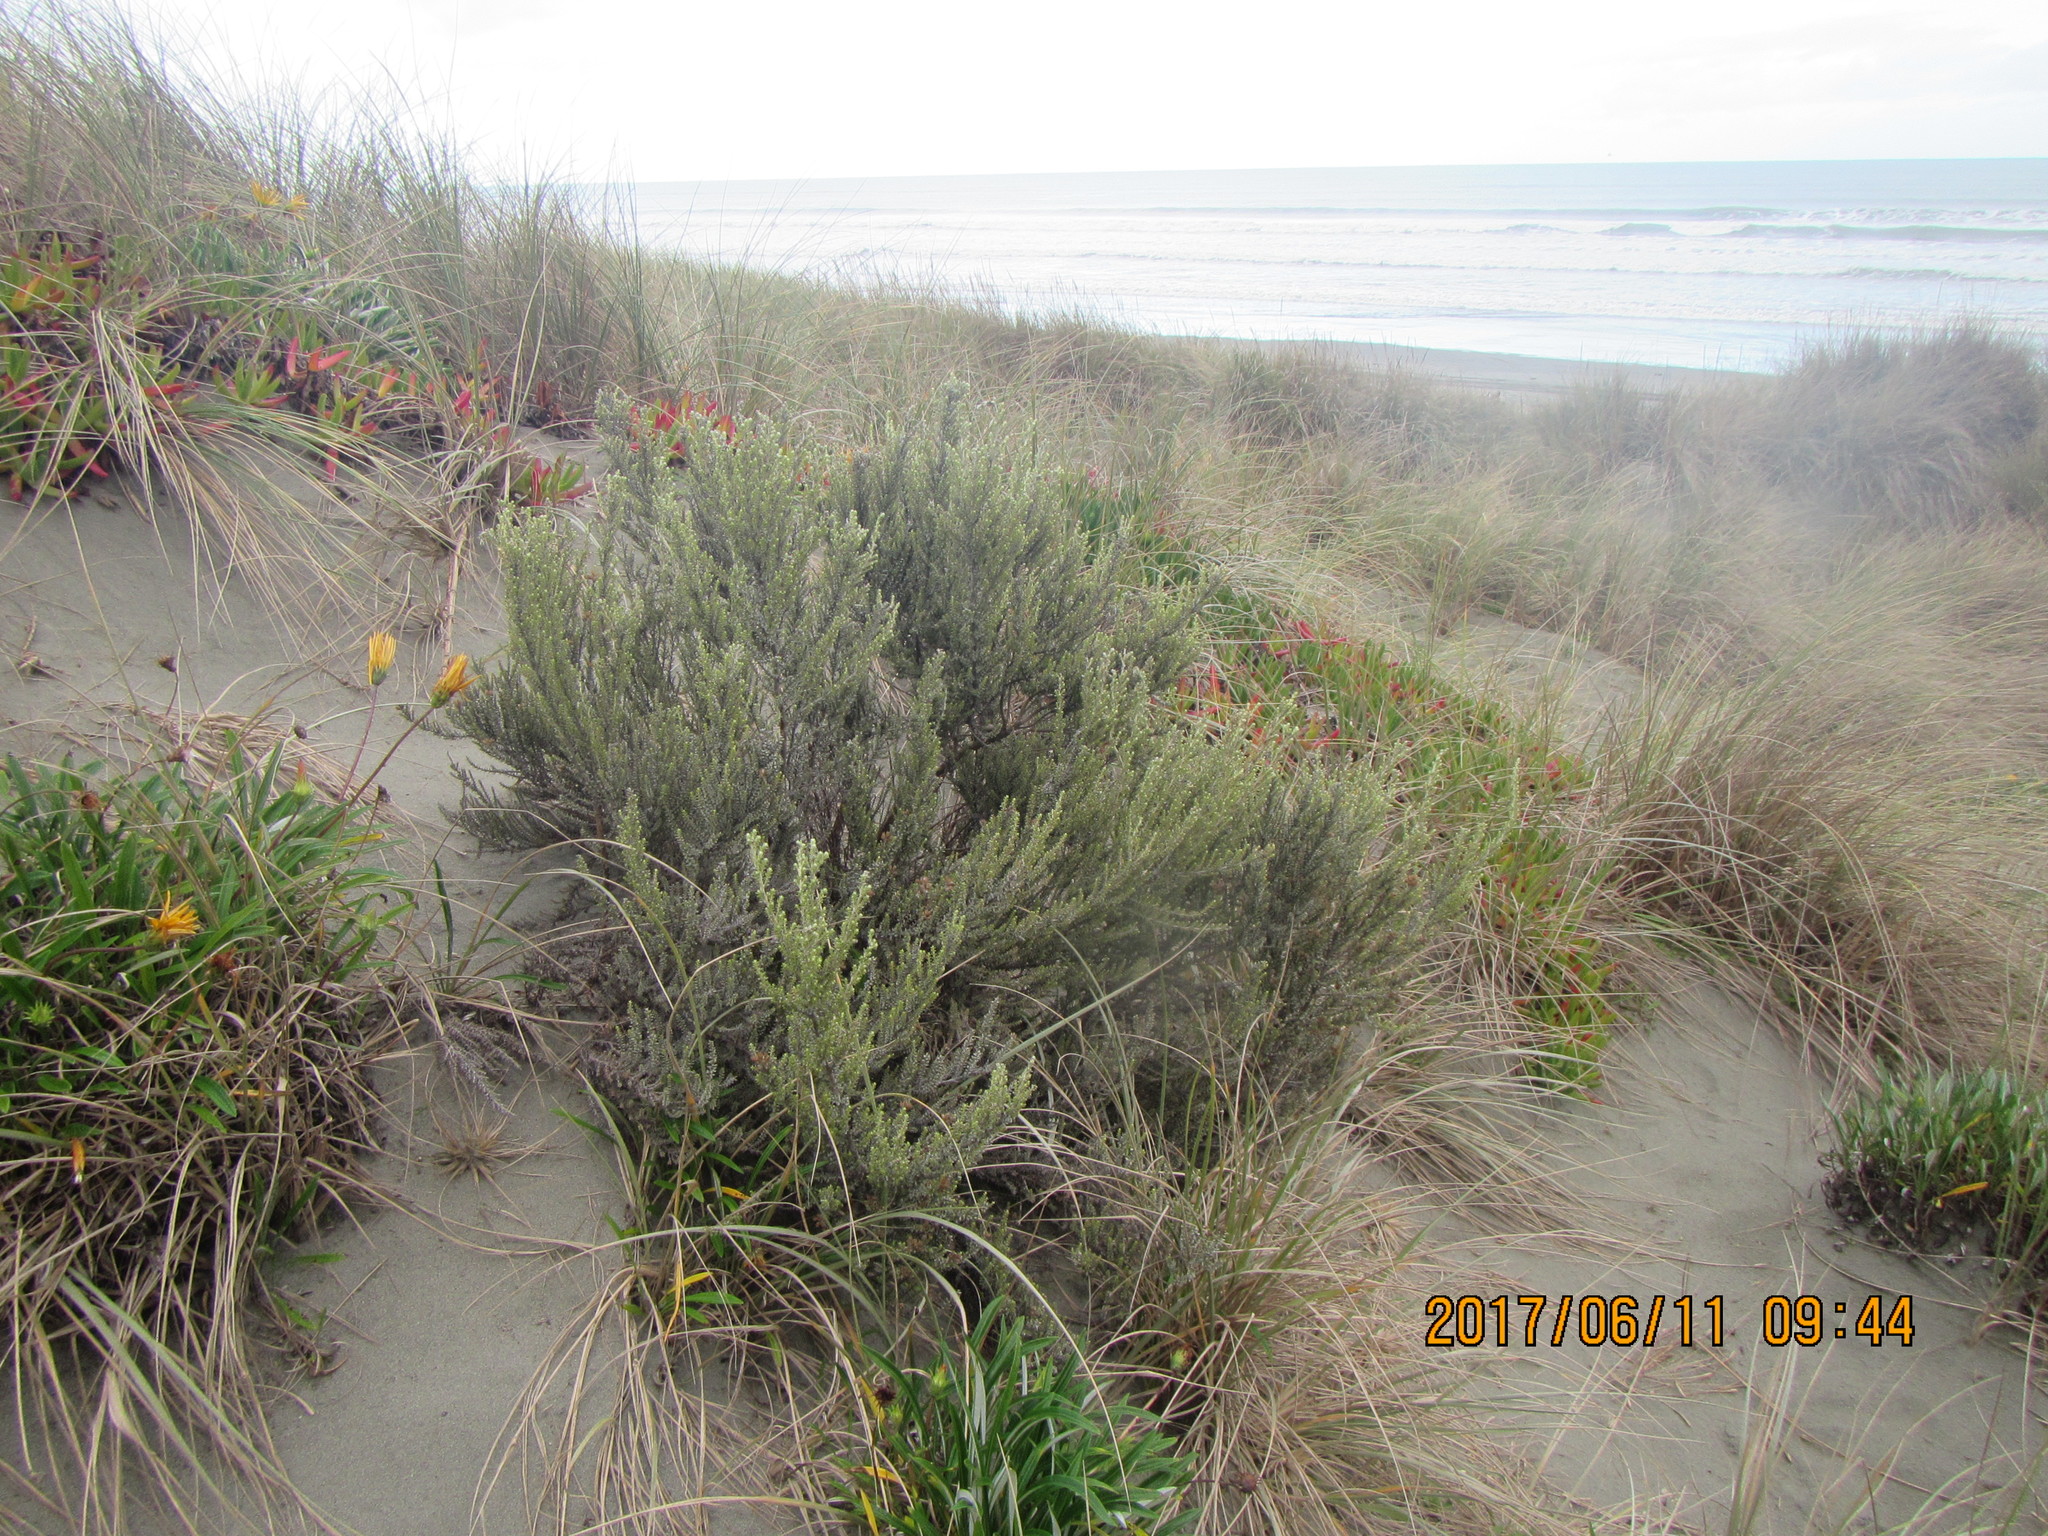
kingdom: Plantae
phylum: Tracheophyta
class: Magnoliopsida
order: Asterales
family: Asteraceae
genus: Ozothamnus
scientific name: Ozothamnus leptophyllus
